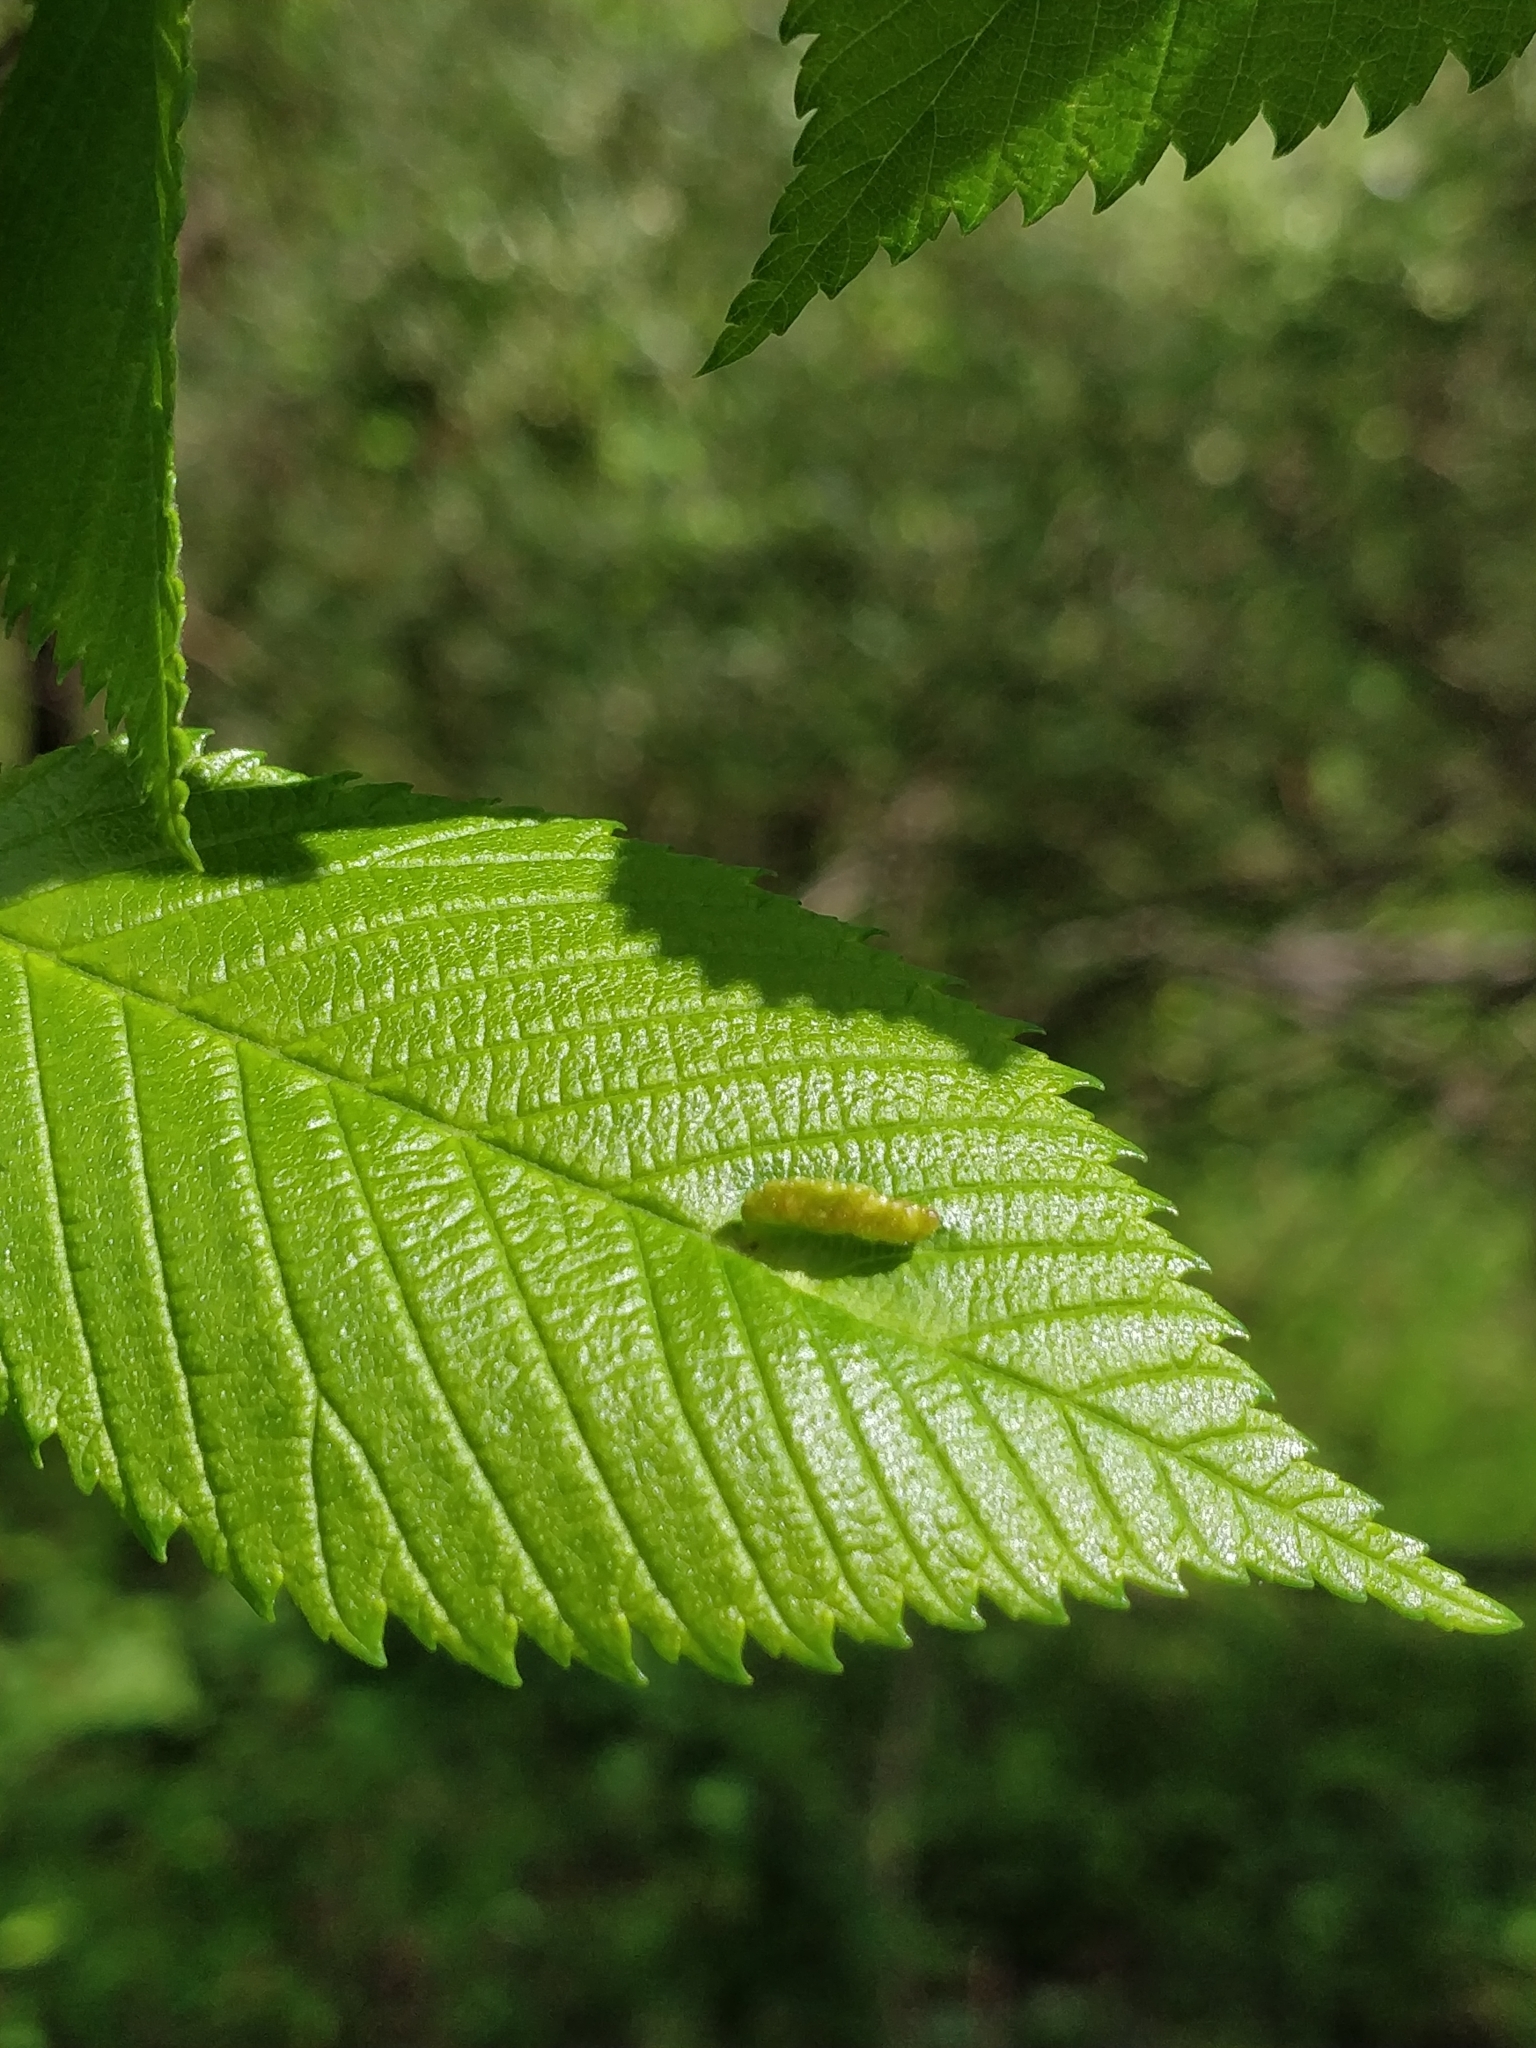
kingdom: Animalia
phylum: Arthropoda
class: Insecta
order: Hemiptera
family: Aphididae
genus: Colopha
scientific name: Colopha ulmicola
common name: Elm cockscombgall aphid
